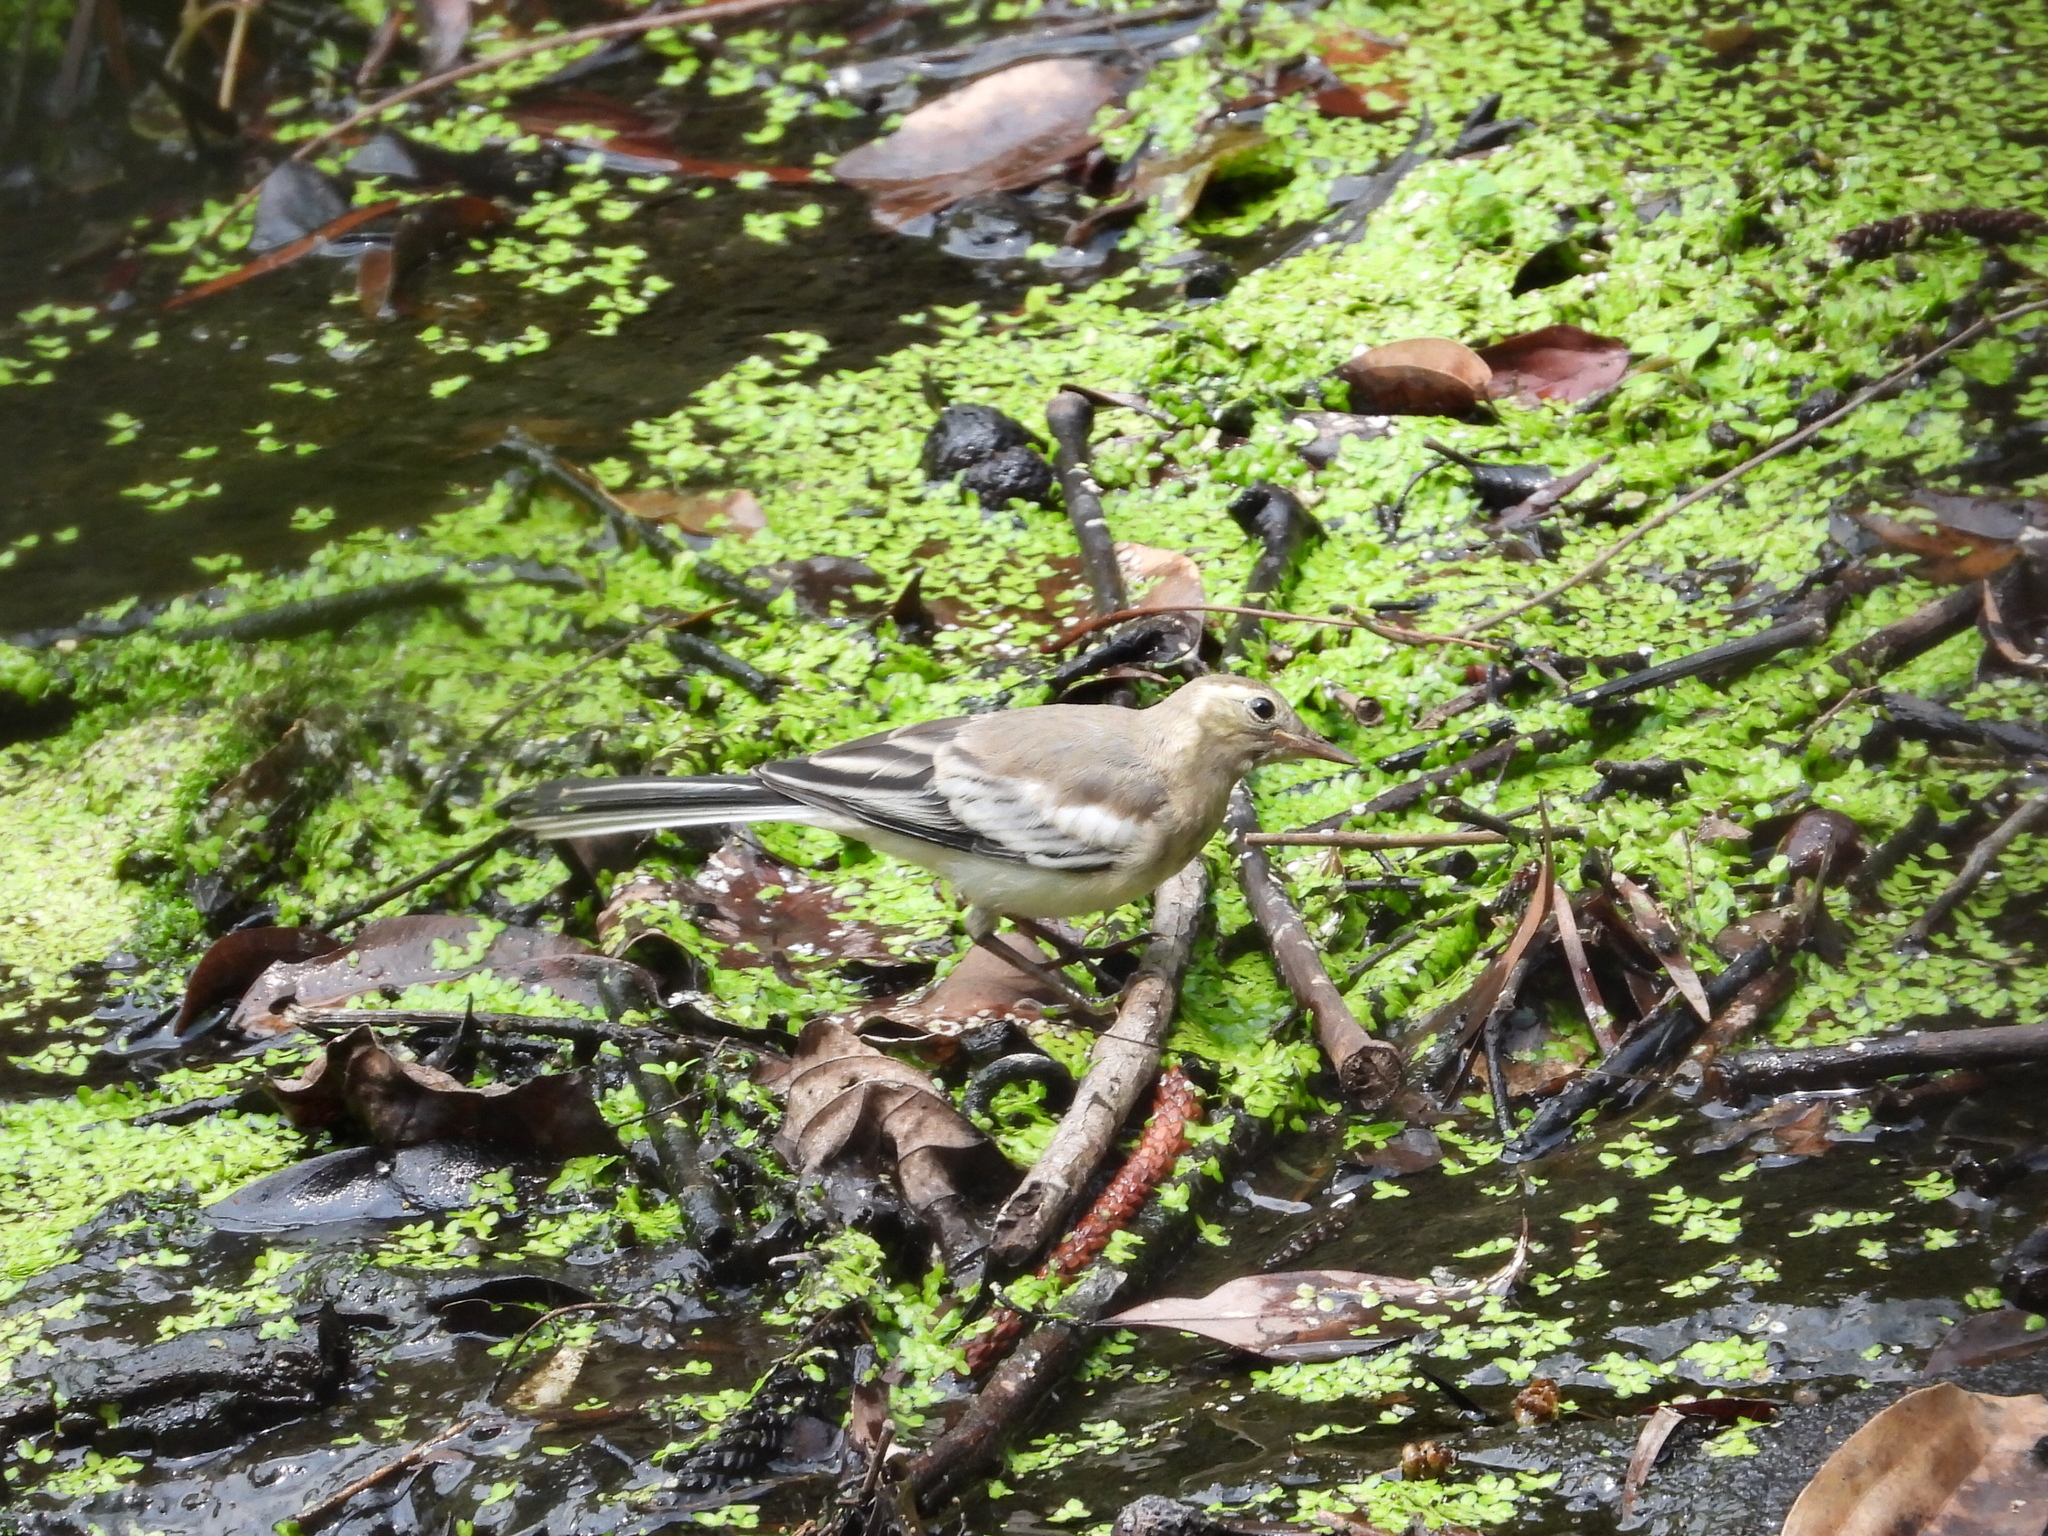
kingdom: Animalia
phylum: Chordata
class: Aves
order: Passeriformes
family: Motacillidae
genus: Motacilla
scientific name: Motacilla alba
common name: White wagtail
